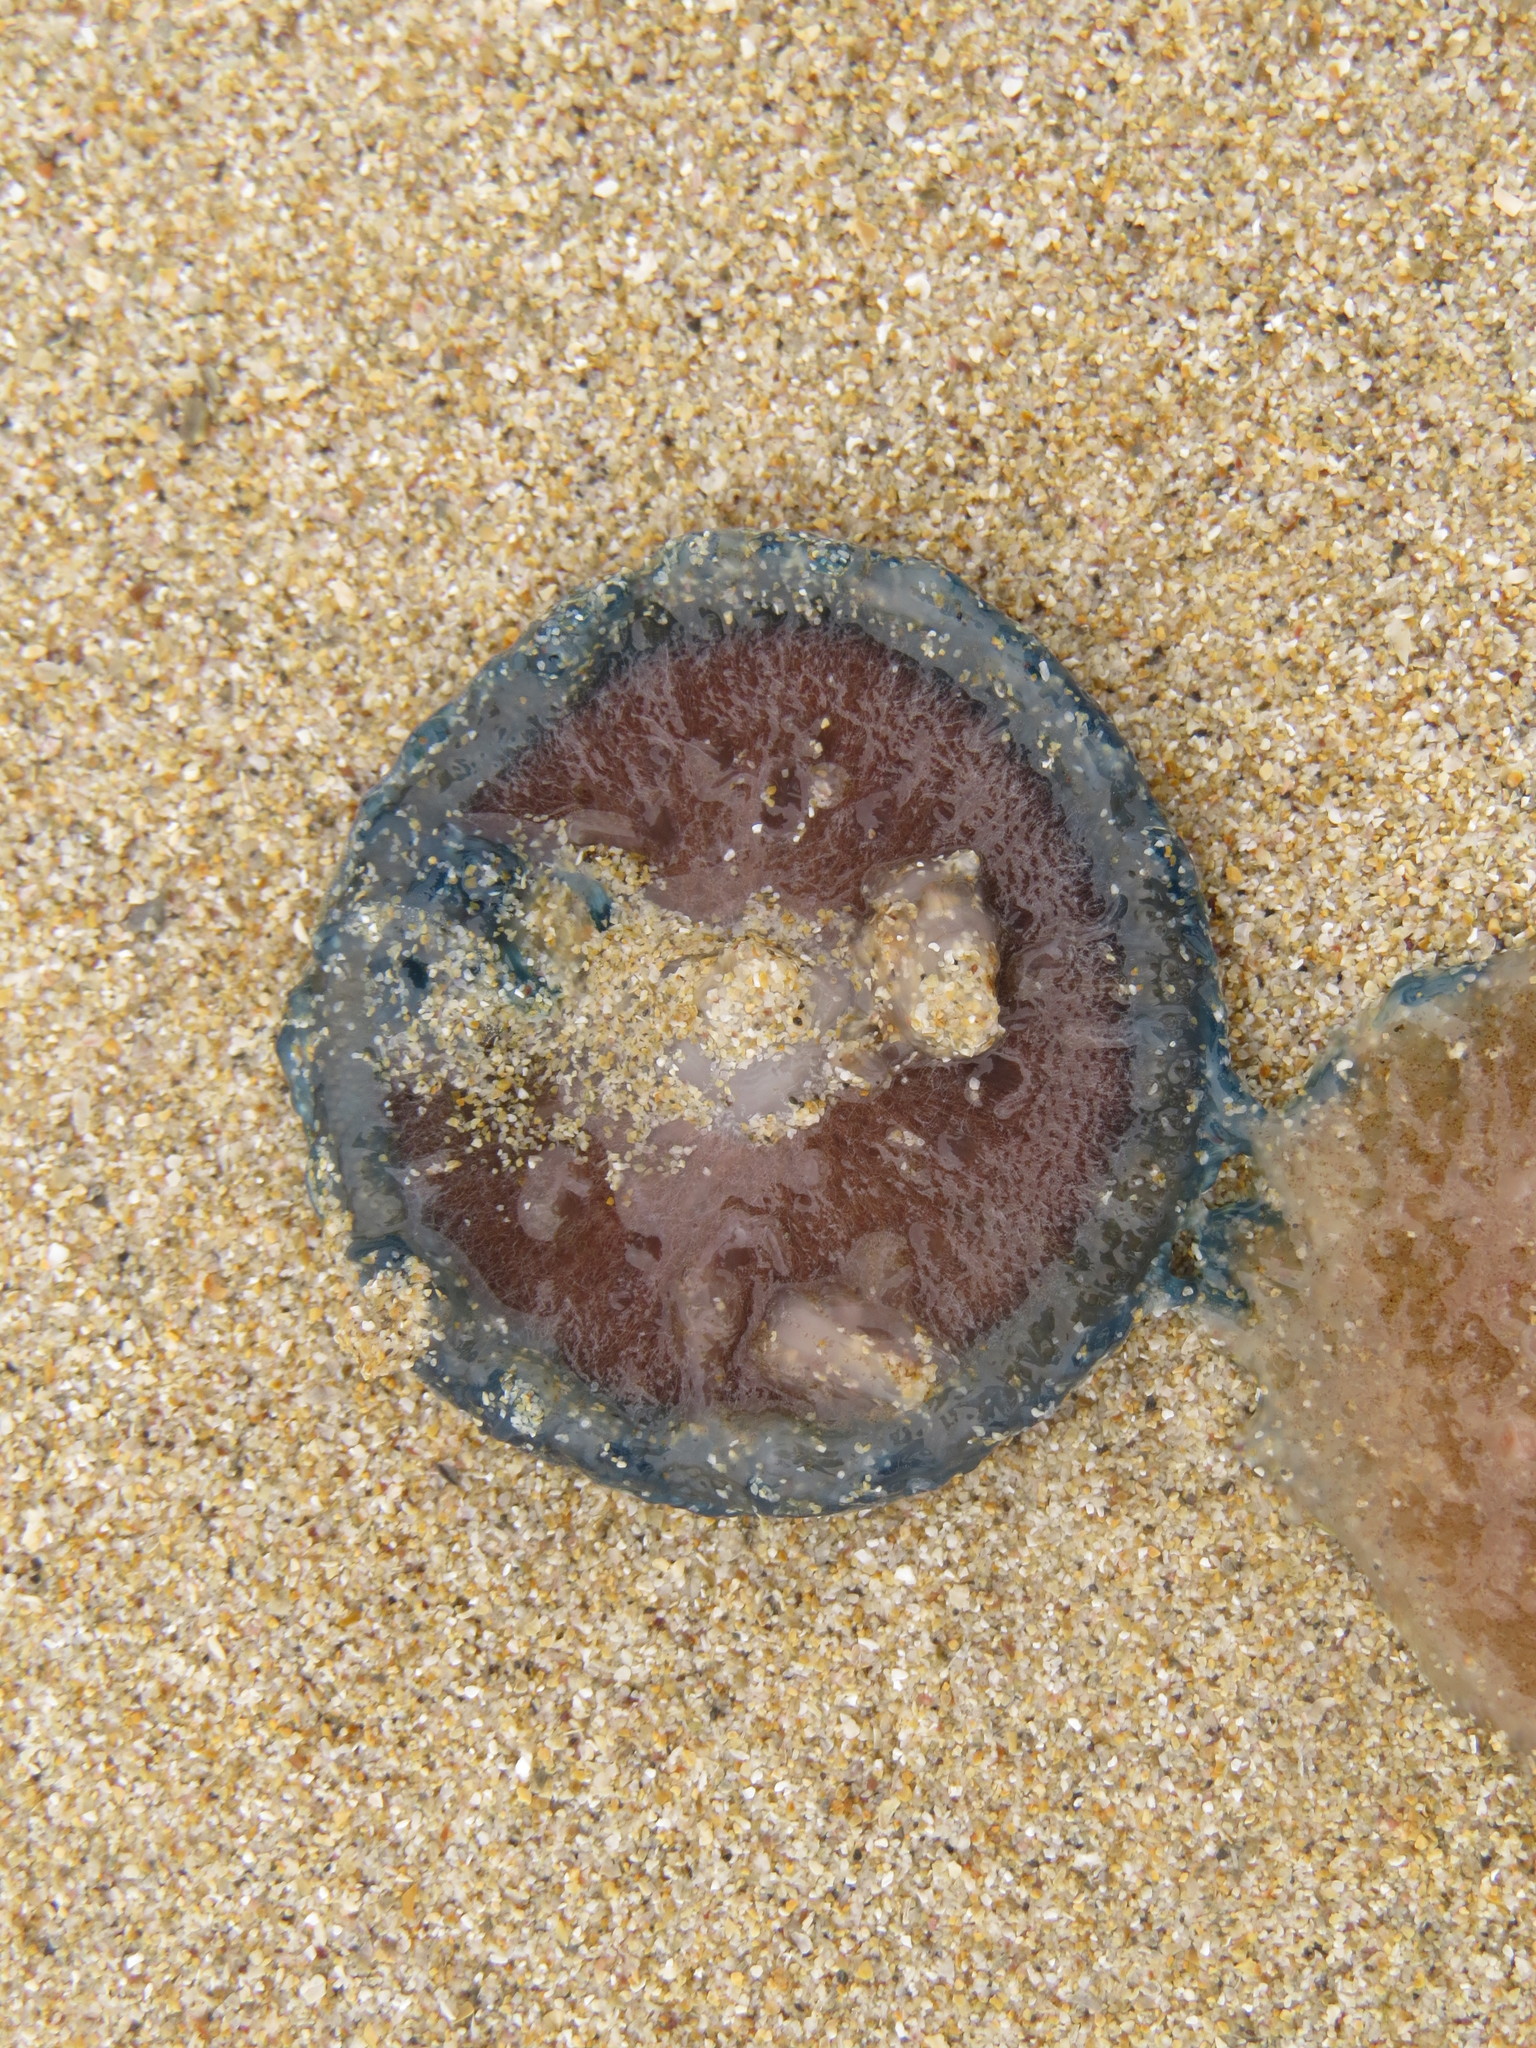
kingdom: Animalia
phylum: Cnidaria
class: Hydrozoa
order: Anthoathecata
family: Porpitidae
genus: Porpita
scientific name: Porpita porpita
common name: Blue button
